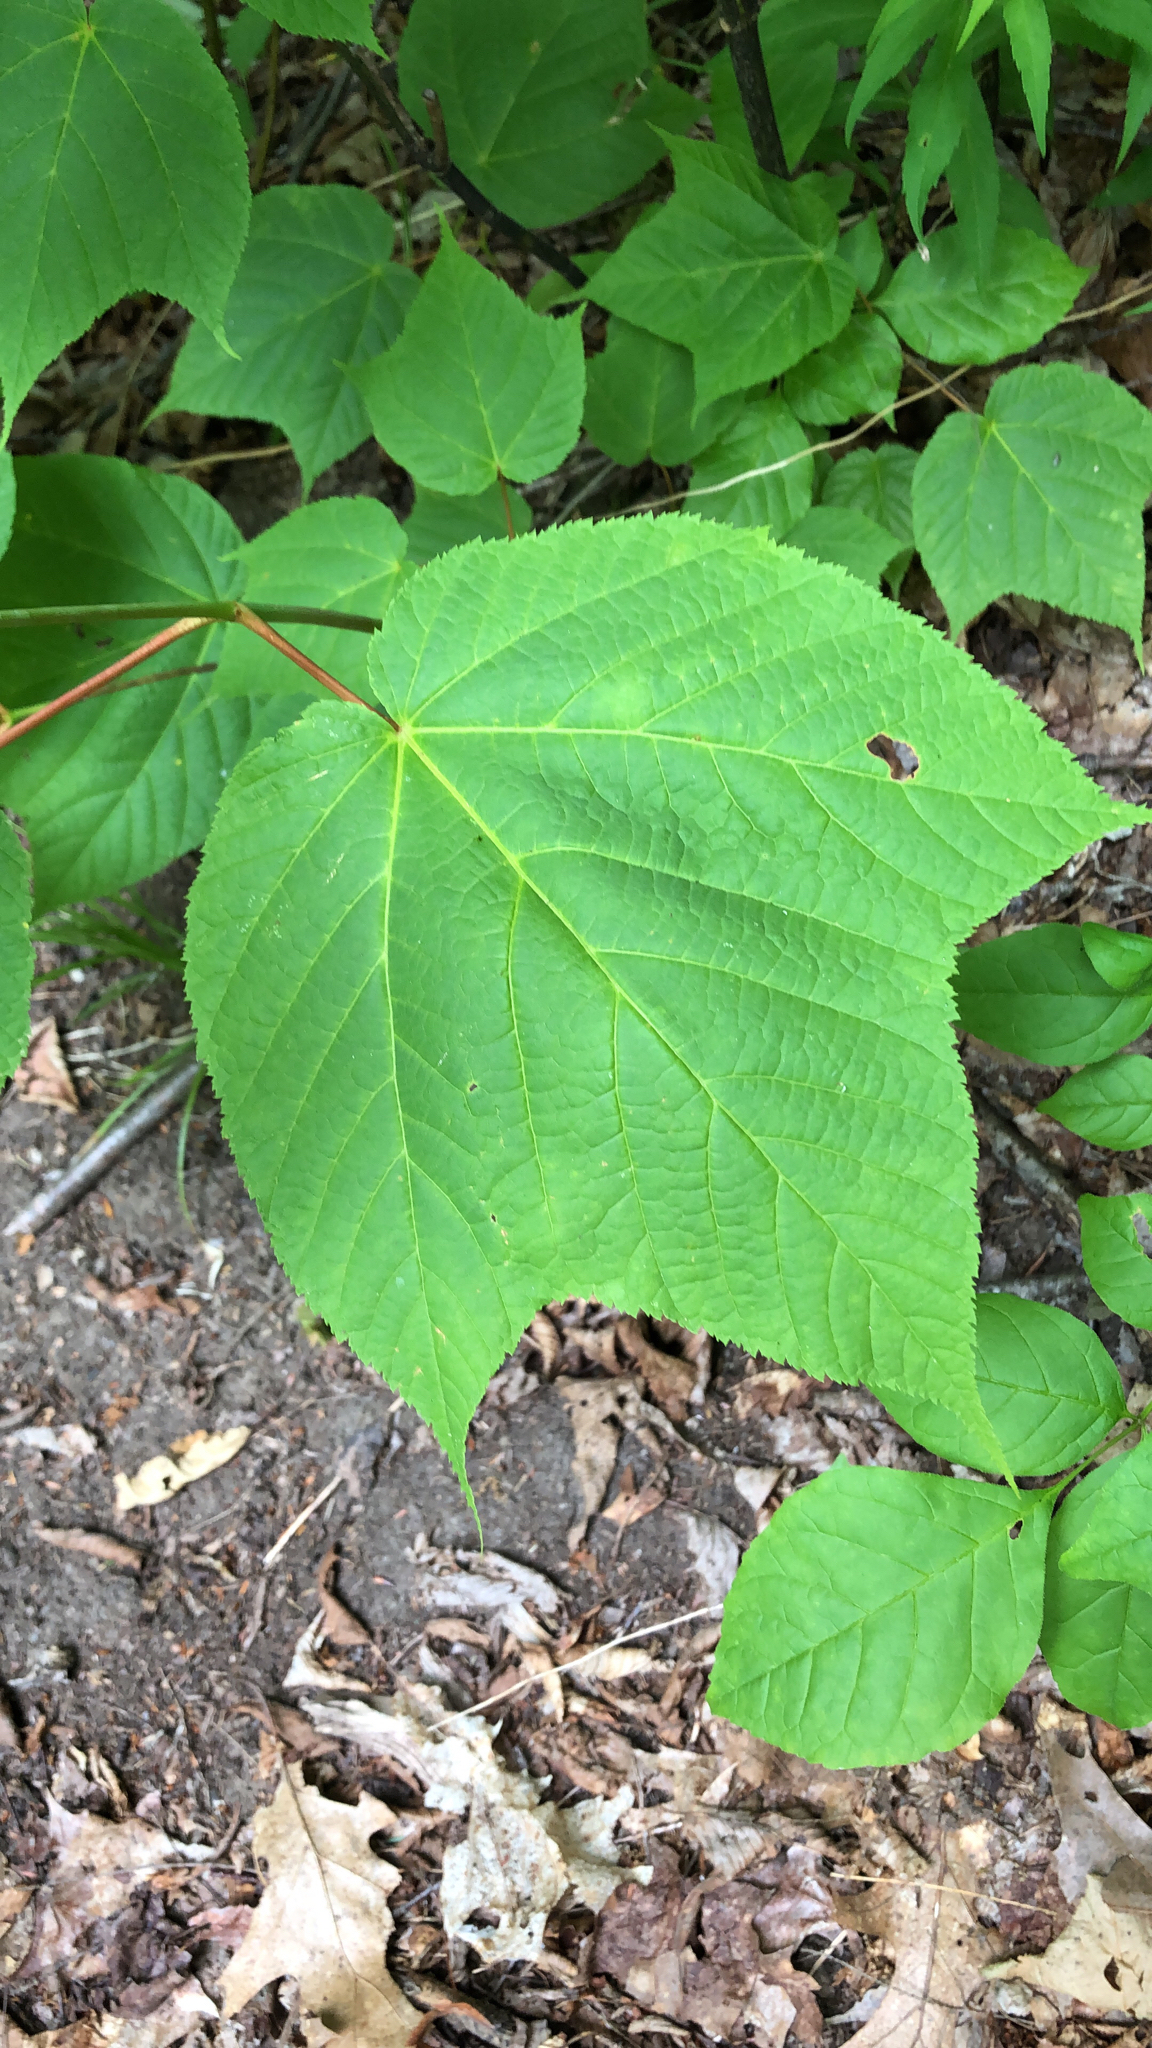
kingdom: Plantae
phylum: Tracheophyta
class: Magnoliopsida
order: Sapindales
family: Sapindaceae
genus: Acer
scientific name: Acer pensylvanicum
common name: Moosewood
